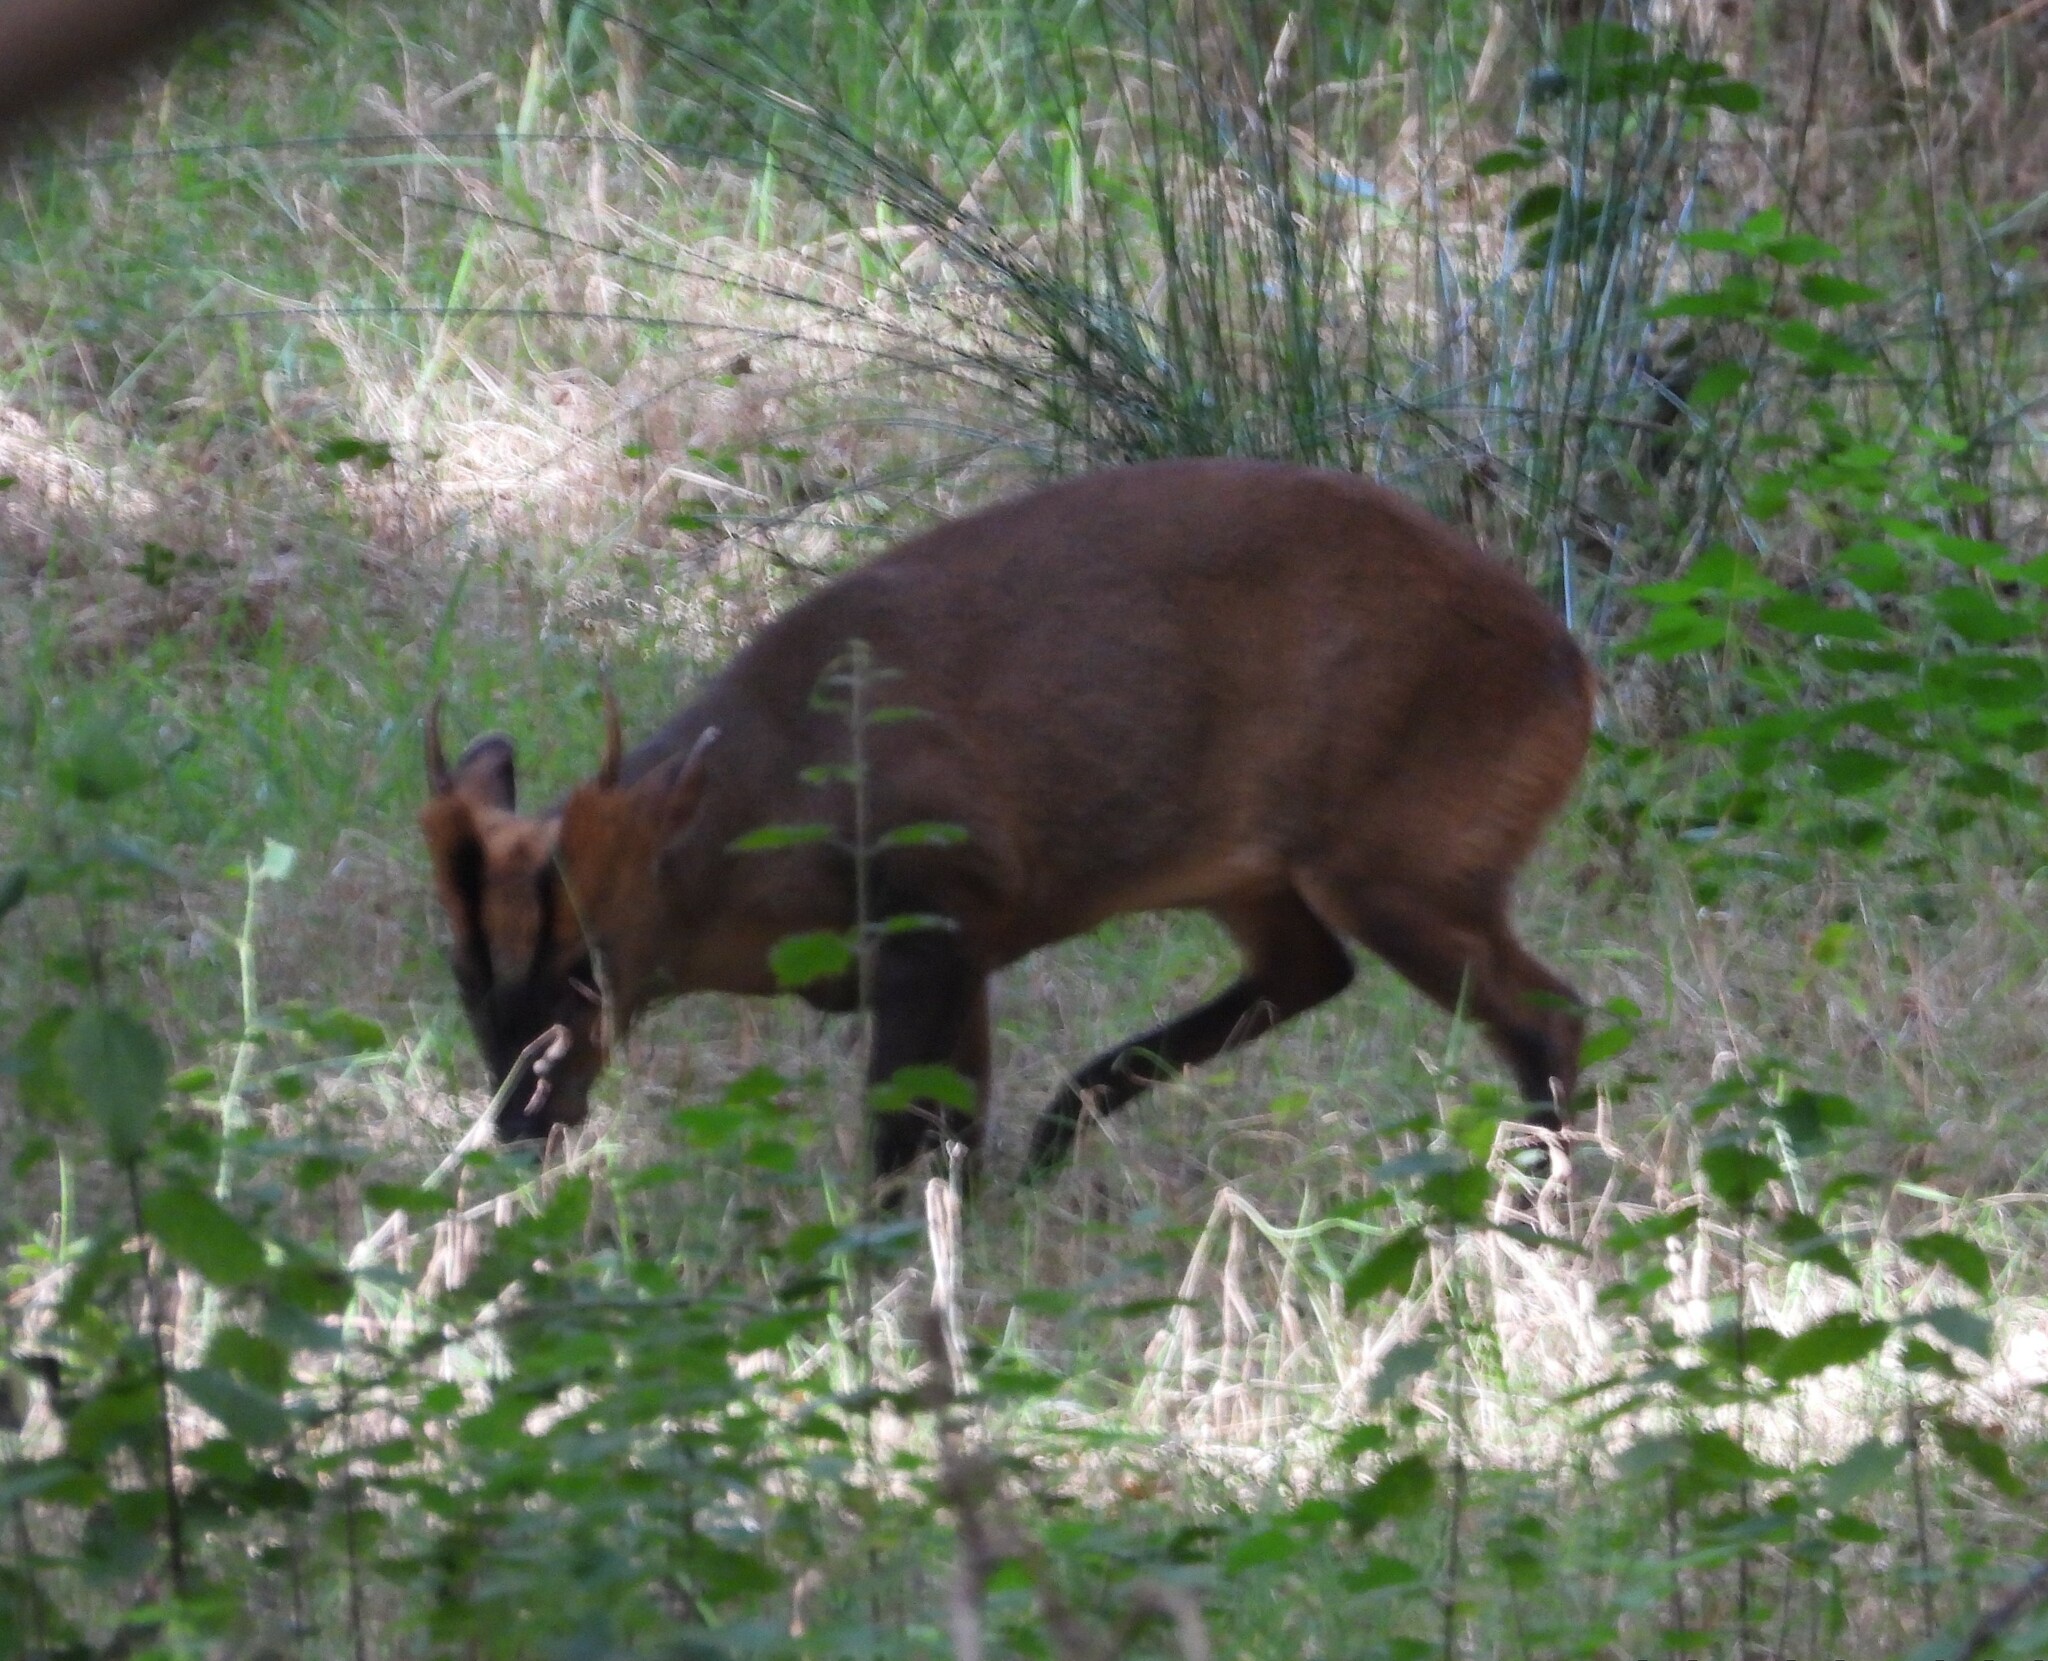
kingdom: Animalia
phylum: Chordata
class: Mammalia
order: Artiodactyla
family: Cervidae
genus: Muntiacus
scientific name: Muntiacus reevesi
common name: Reeves' muntjac
